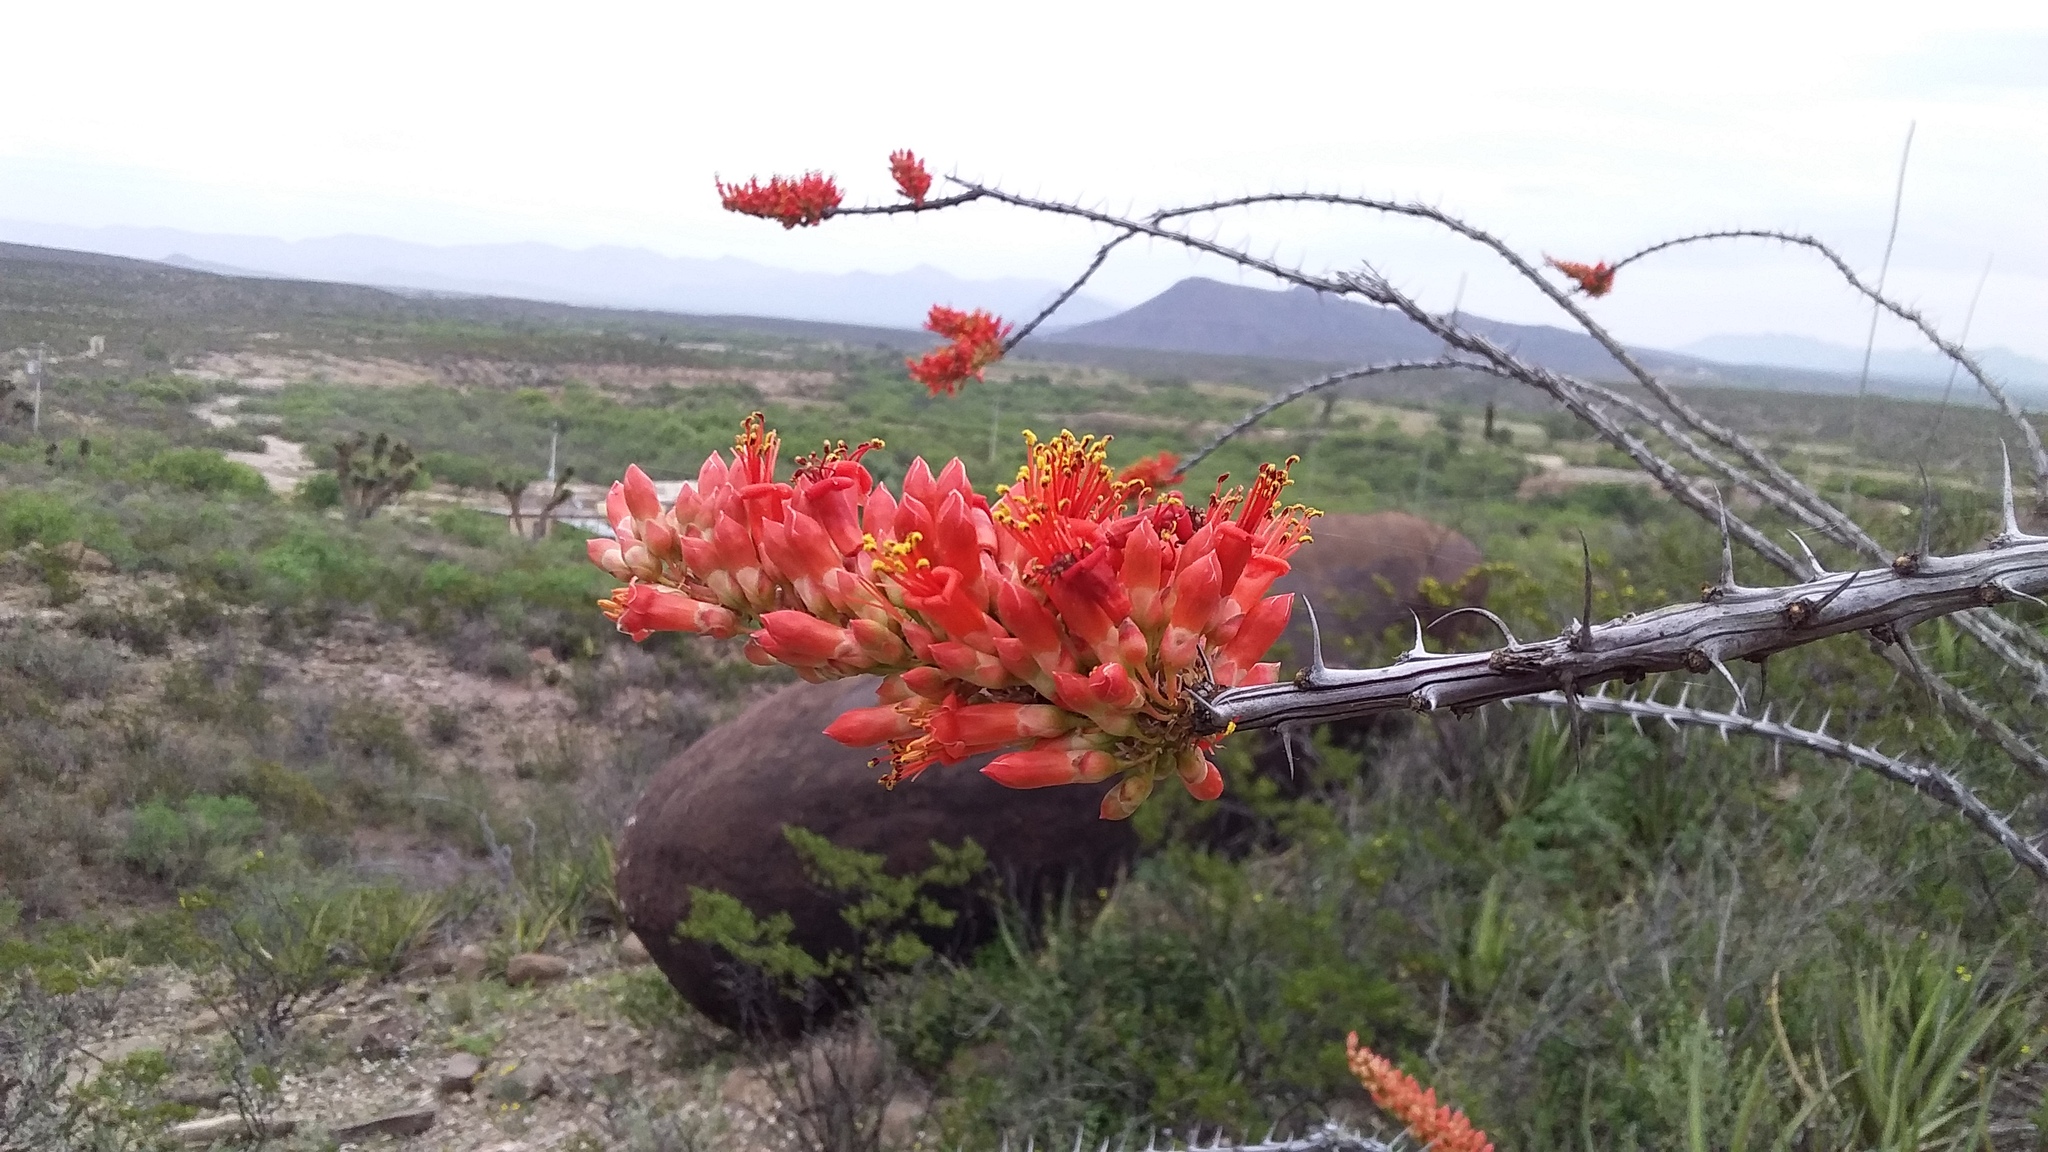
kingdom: Plantae
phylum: Tracheophyta
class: Magnoliopsida
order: Ericales
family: Fouquieriaceae
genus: Fouquieria
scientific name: Fouquieria splendens
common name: Vine-cactus
